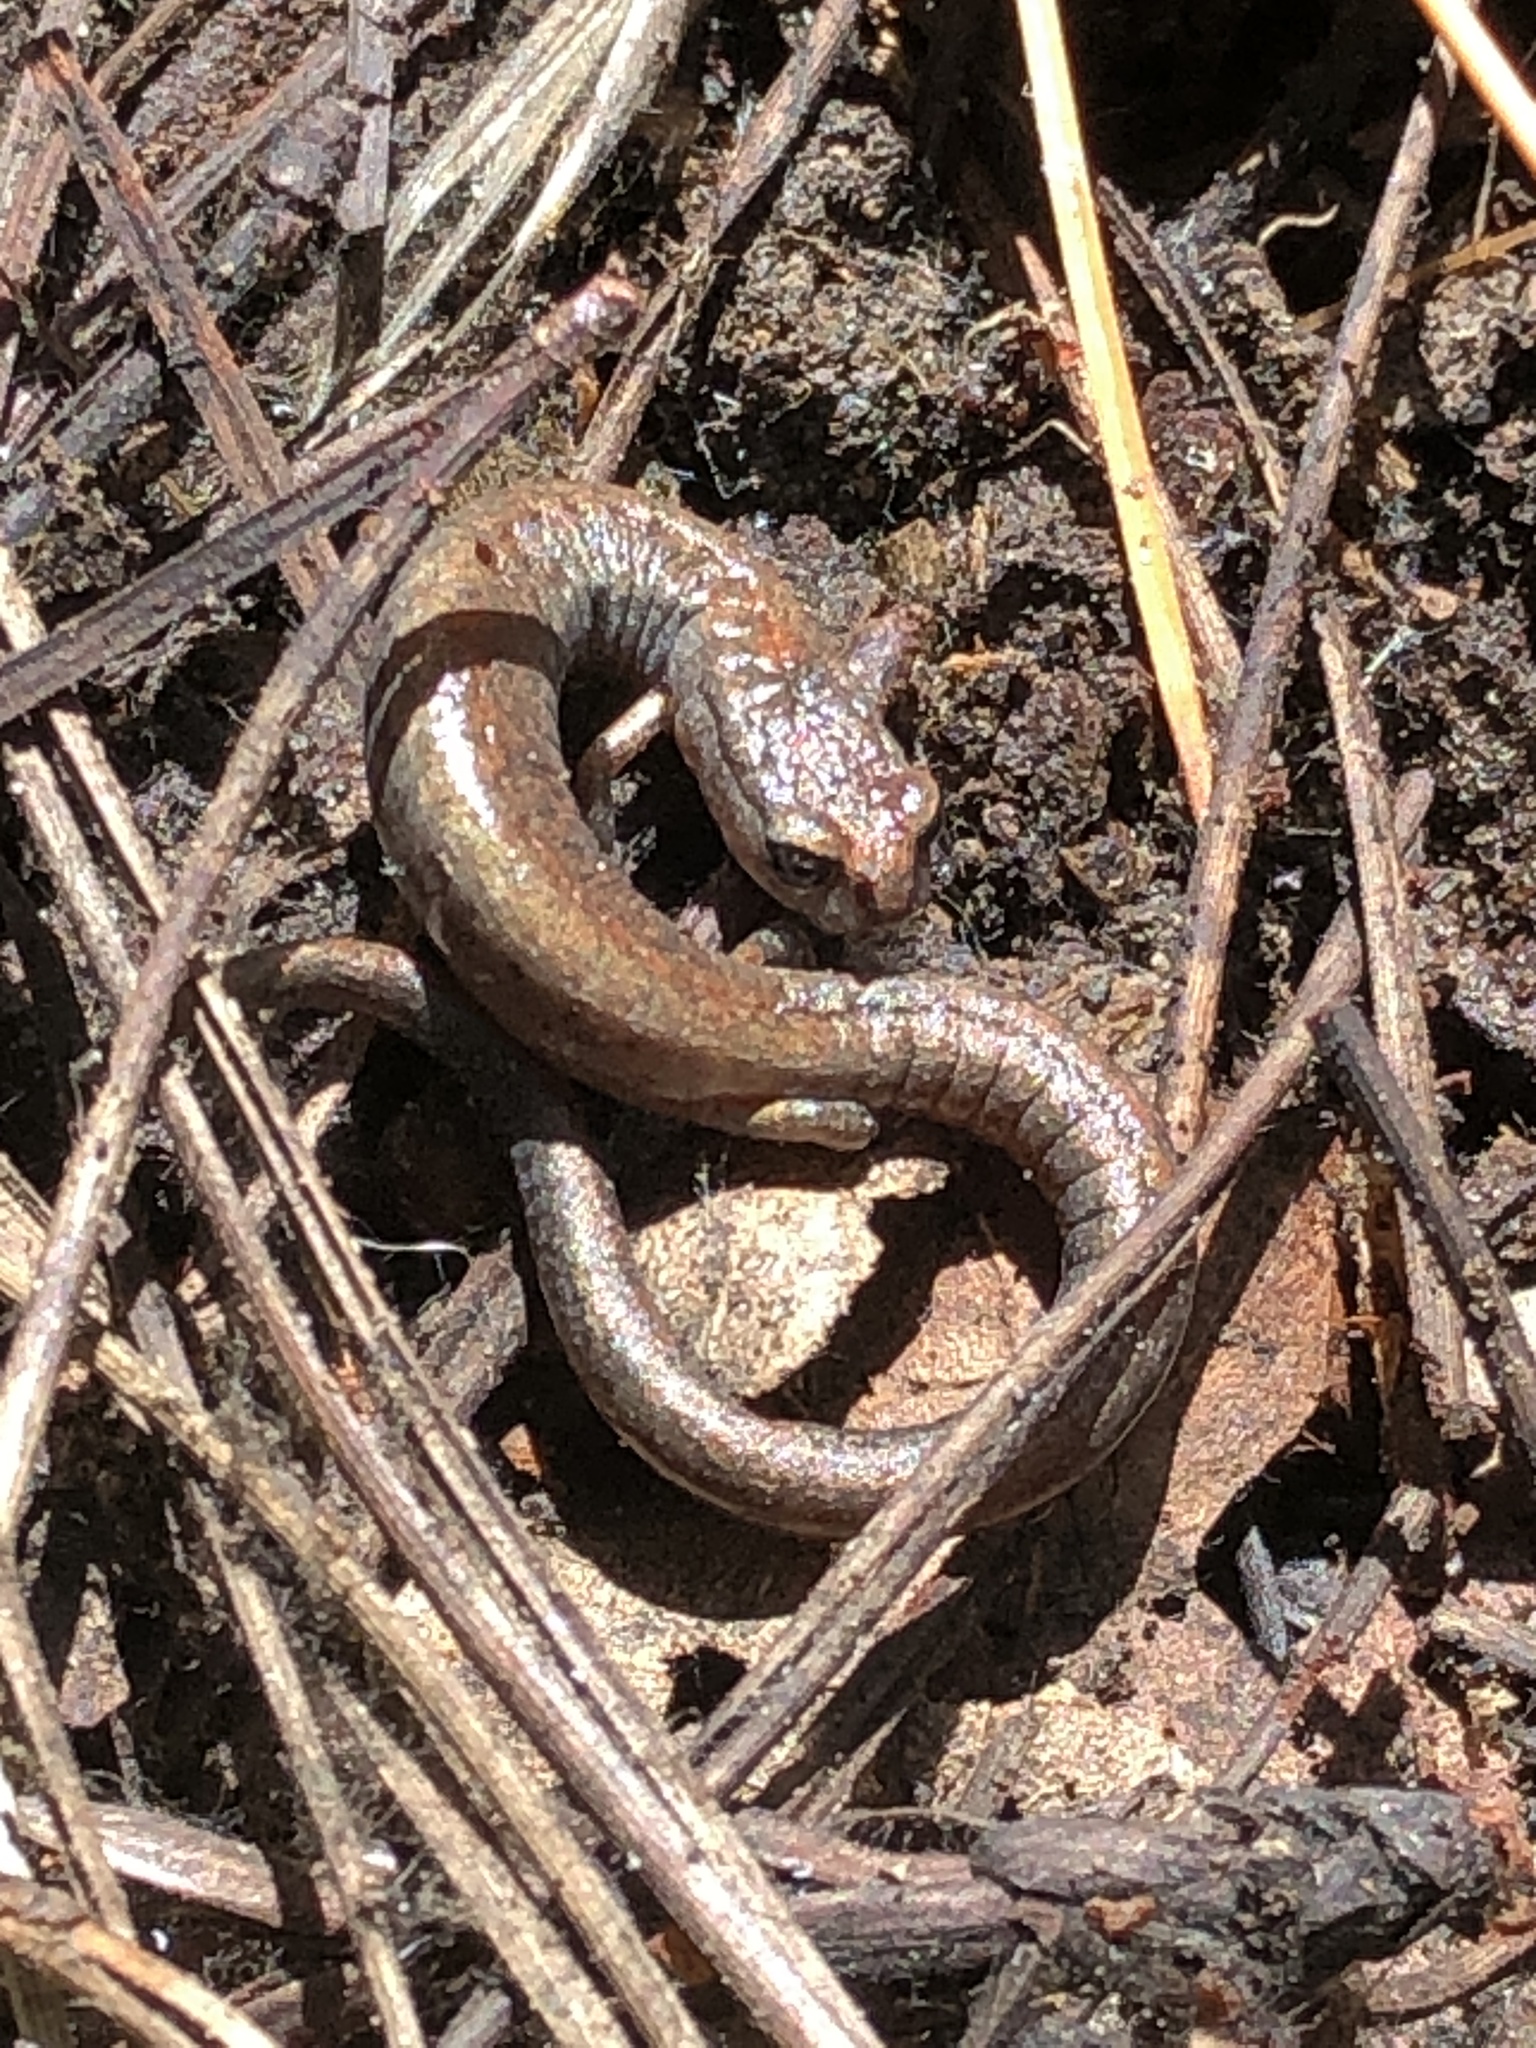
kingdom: Animalia
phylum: Chordata
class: Amphibia
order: Caudata
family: Plethodontidae
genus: Batrachoseps
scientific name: Batrachoseps attenuatus
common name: California slender salamander
